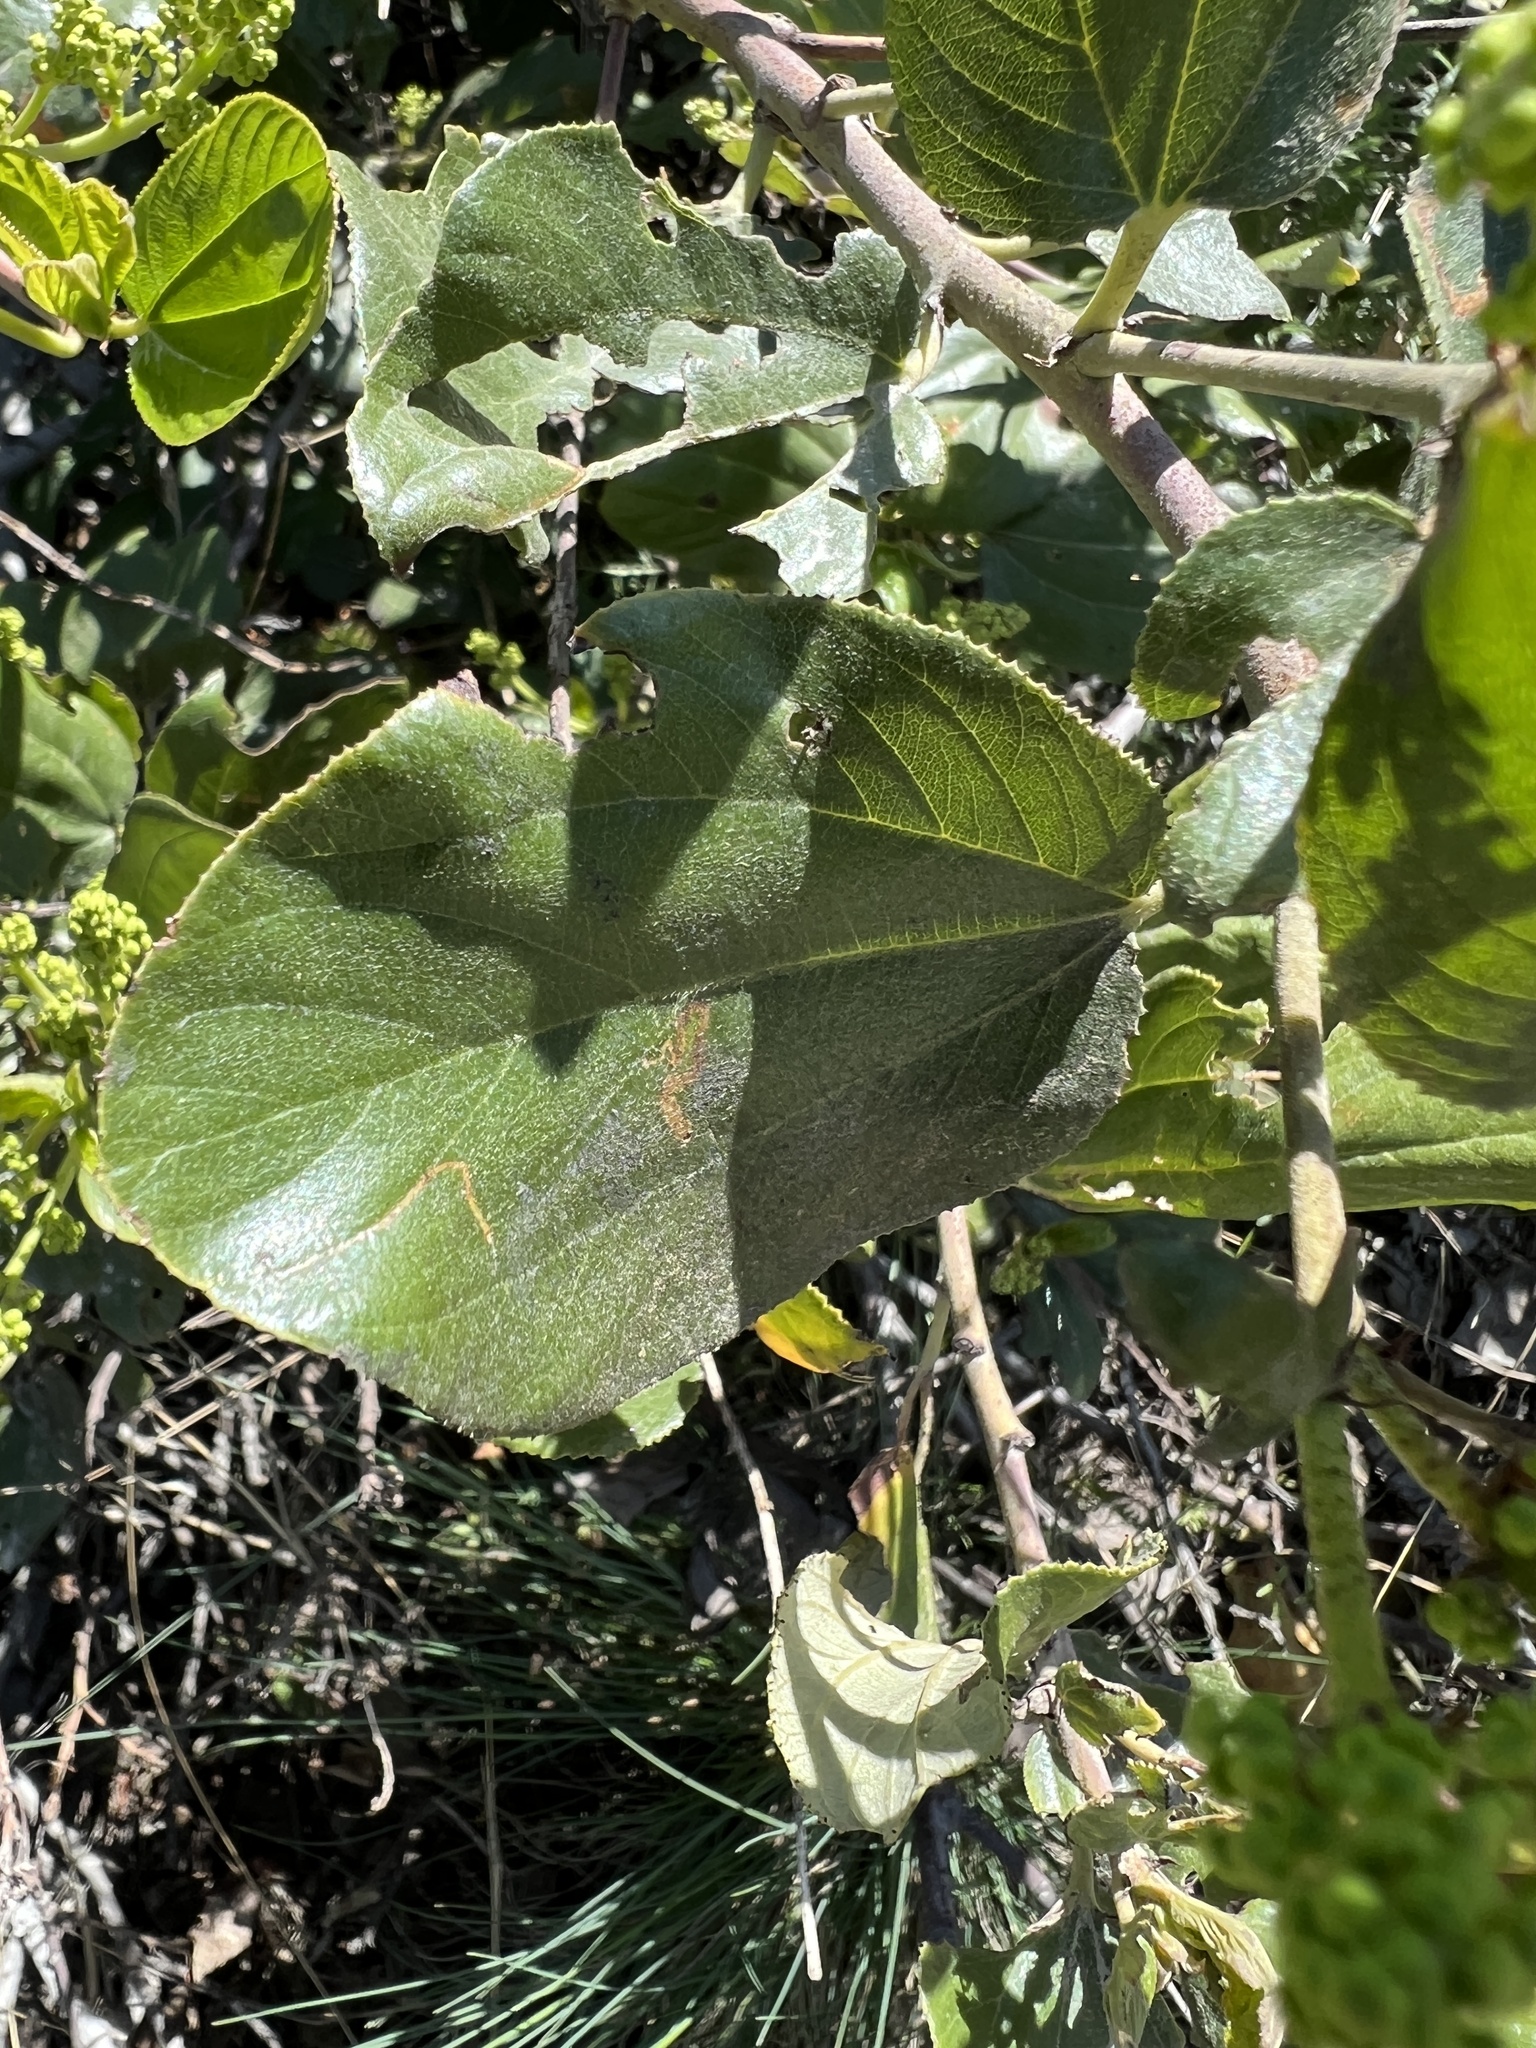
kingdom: Plantae
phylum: Tracheophyta
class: Magnoliopsida
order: Rosales
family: Rhamnaceae
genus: Ceanothus
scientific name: Ceanothus velutinus
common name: Snowbrush
